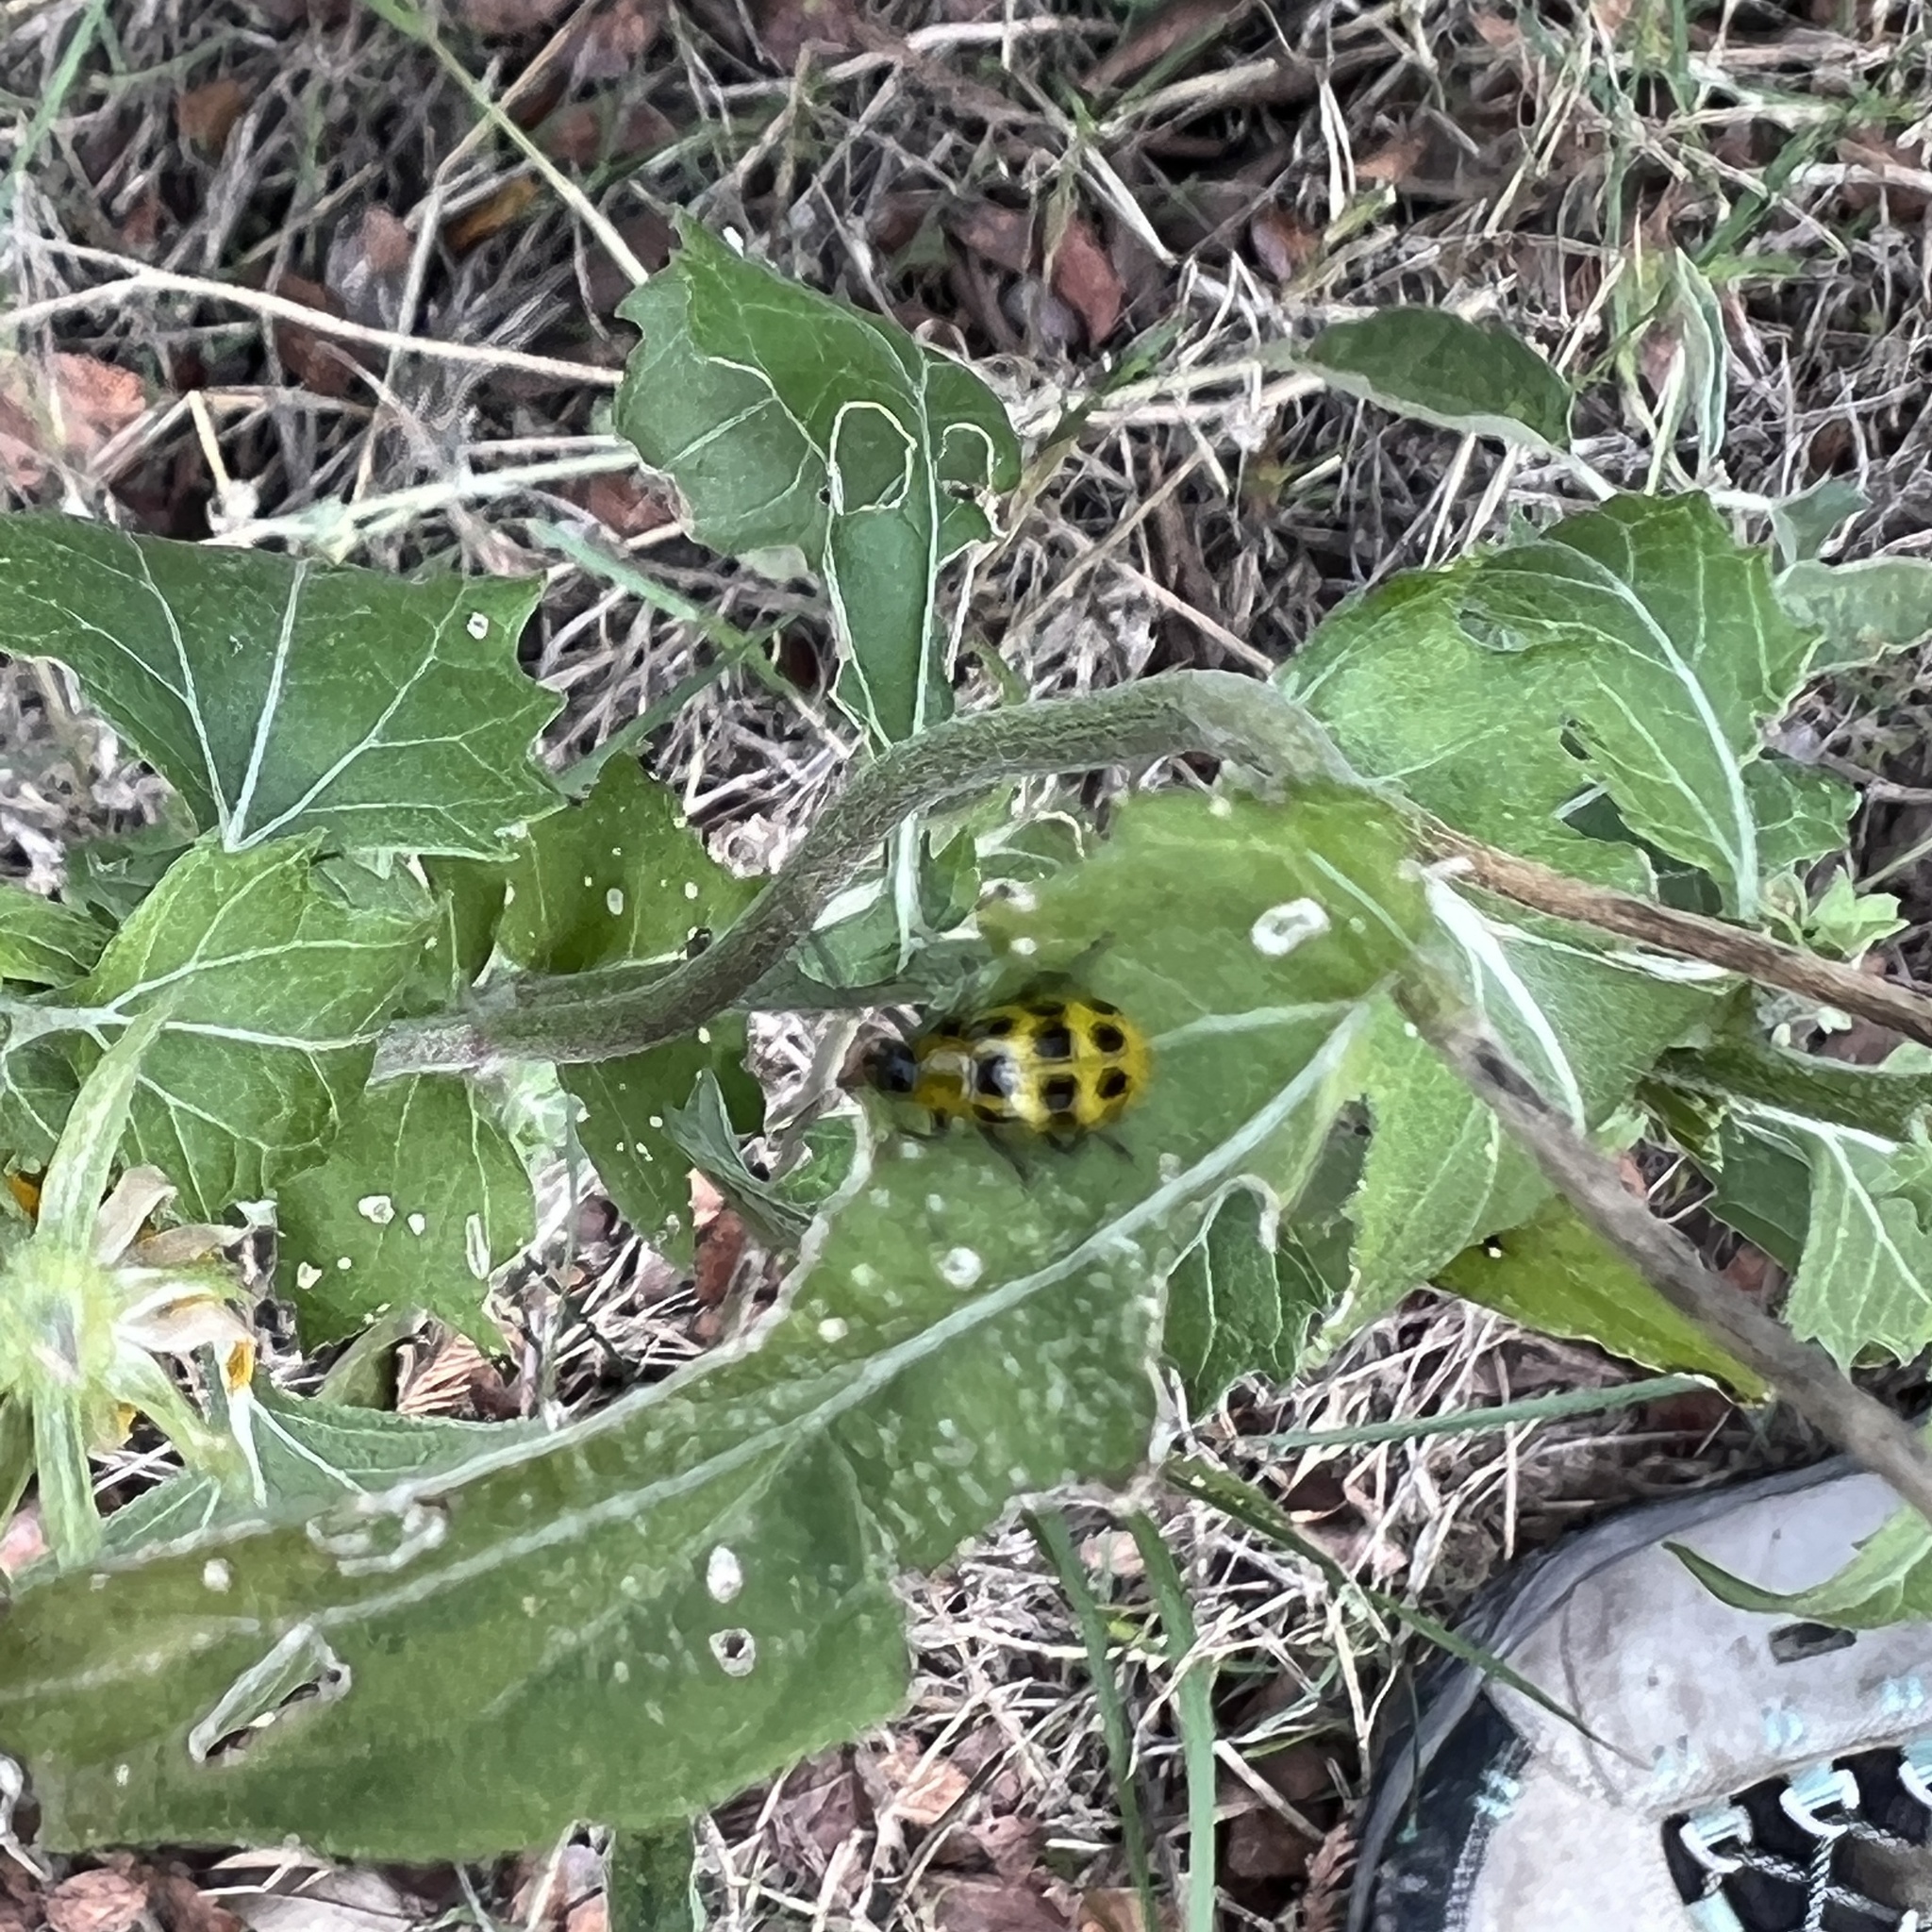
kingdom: Animalia
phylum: Arthropoda
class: Insecta
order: Coleoptera
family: Chrysomelidae
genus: Diabrotica
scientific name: Diabrotica undecimpunctata
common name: Spotted cucumber beetle
